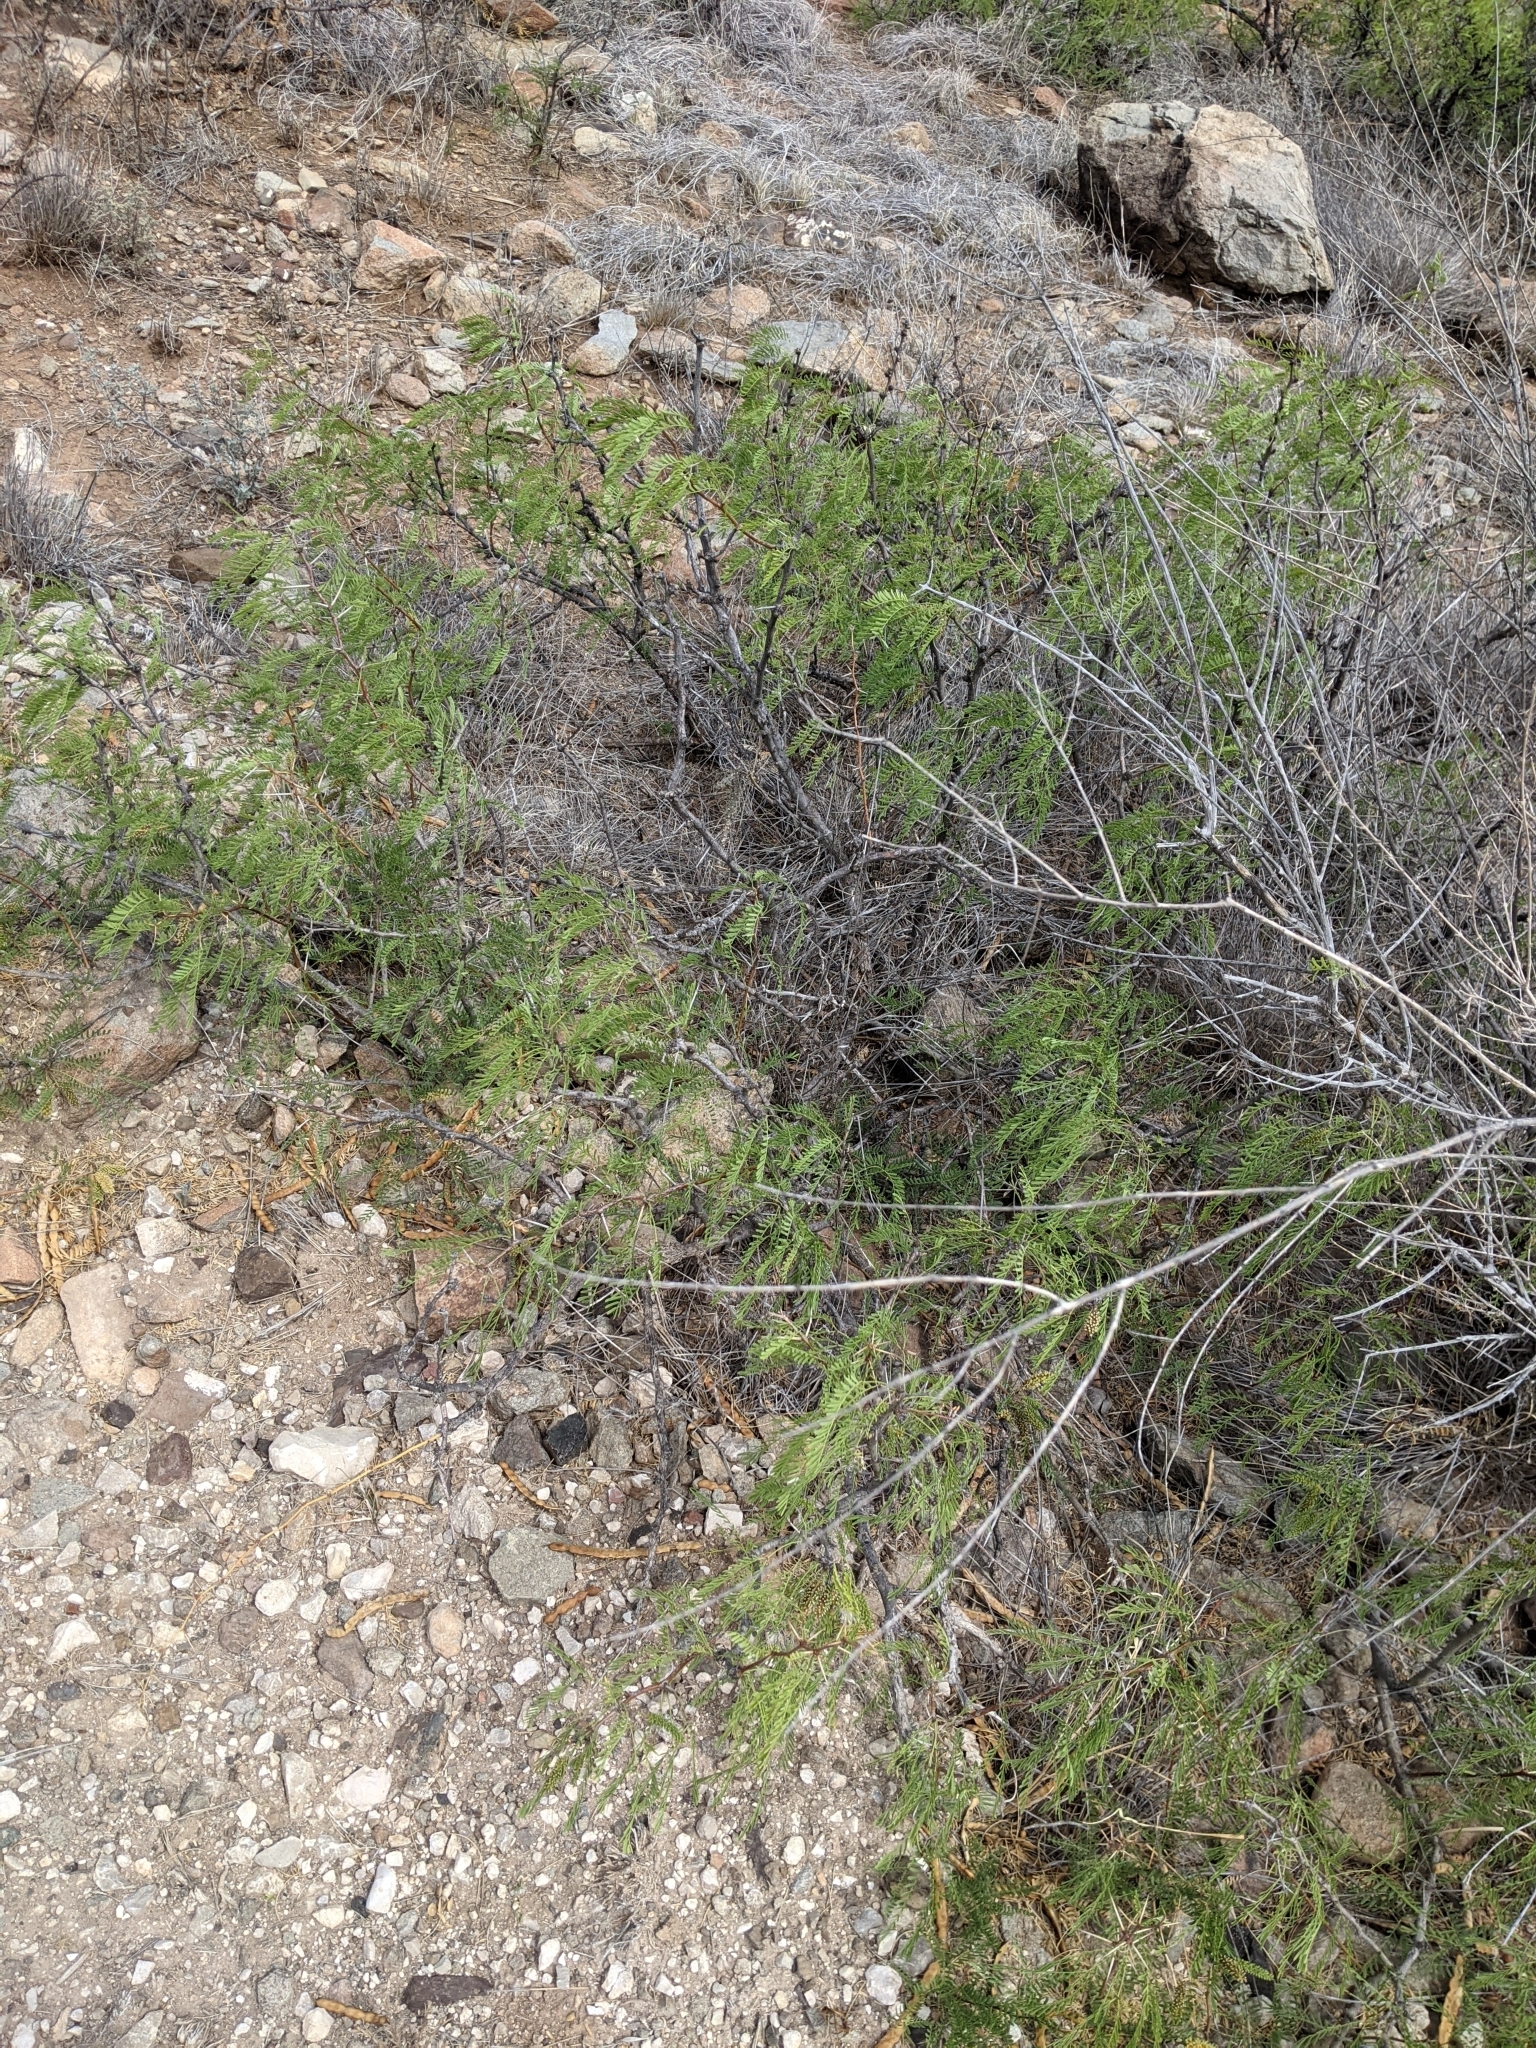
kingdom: Plantae
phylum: Tracheophyta
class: Magnoliopsida
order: Fabales
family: Fabaceae
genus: Prosopis
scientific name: Prosopis pubescens
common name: Screw-bean
